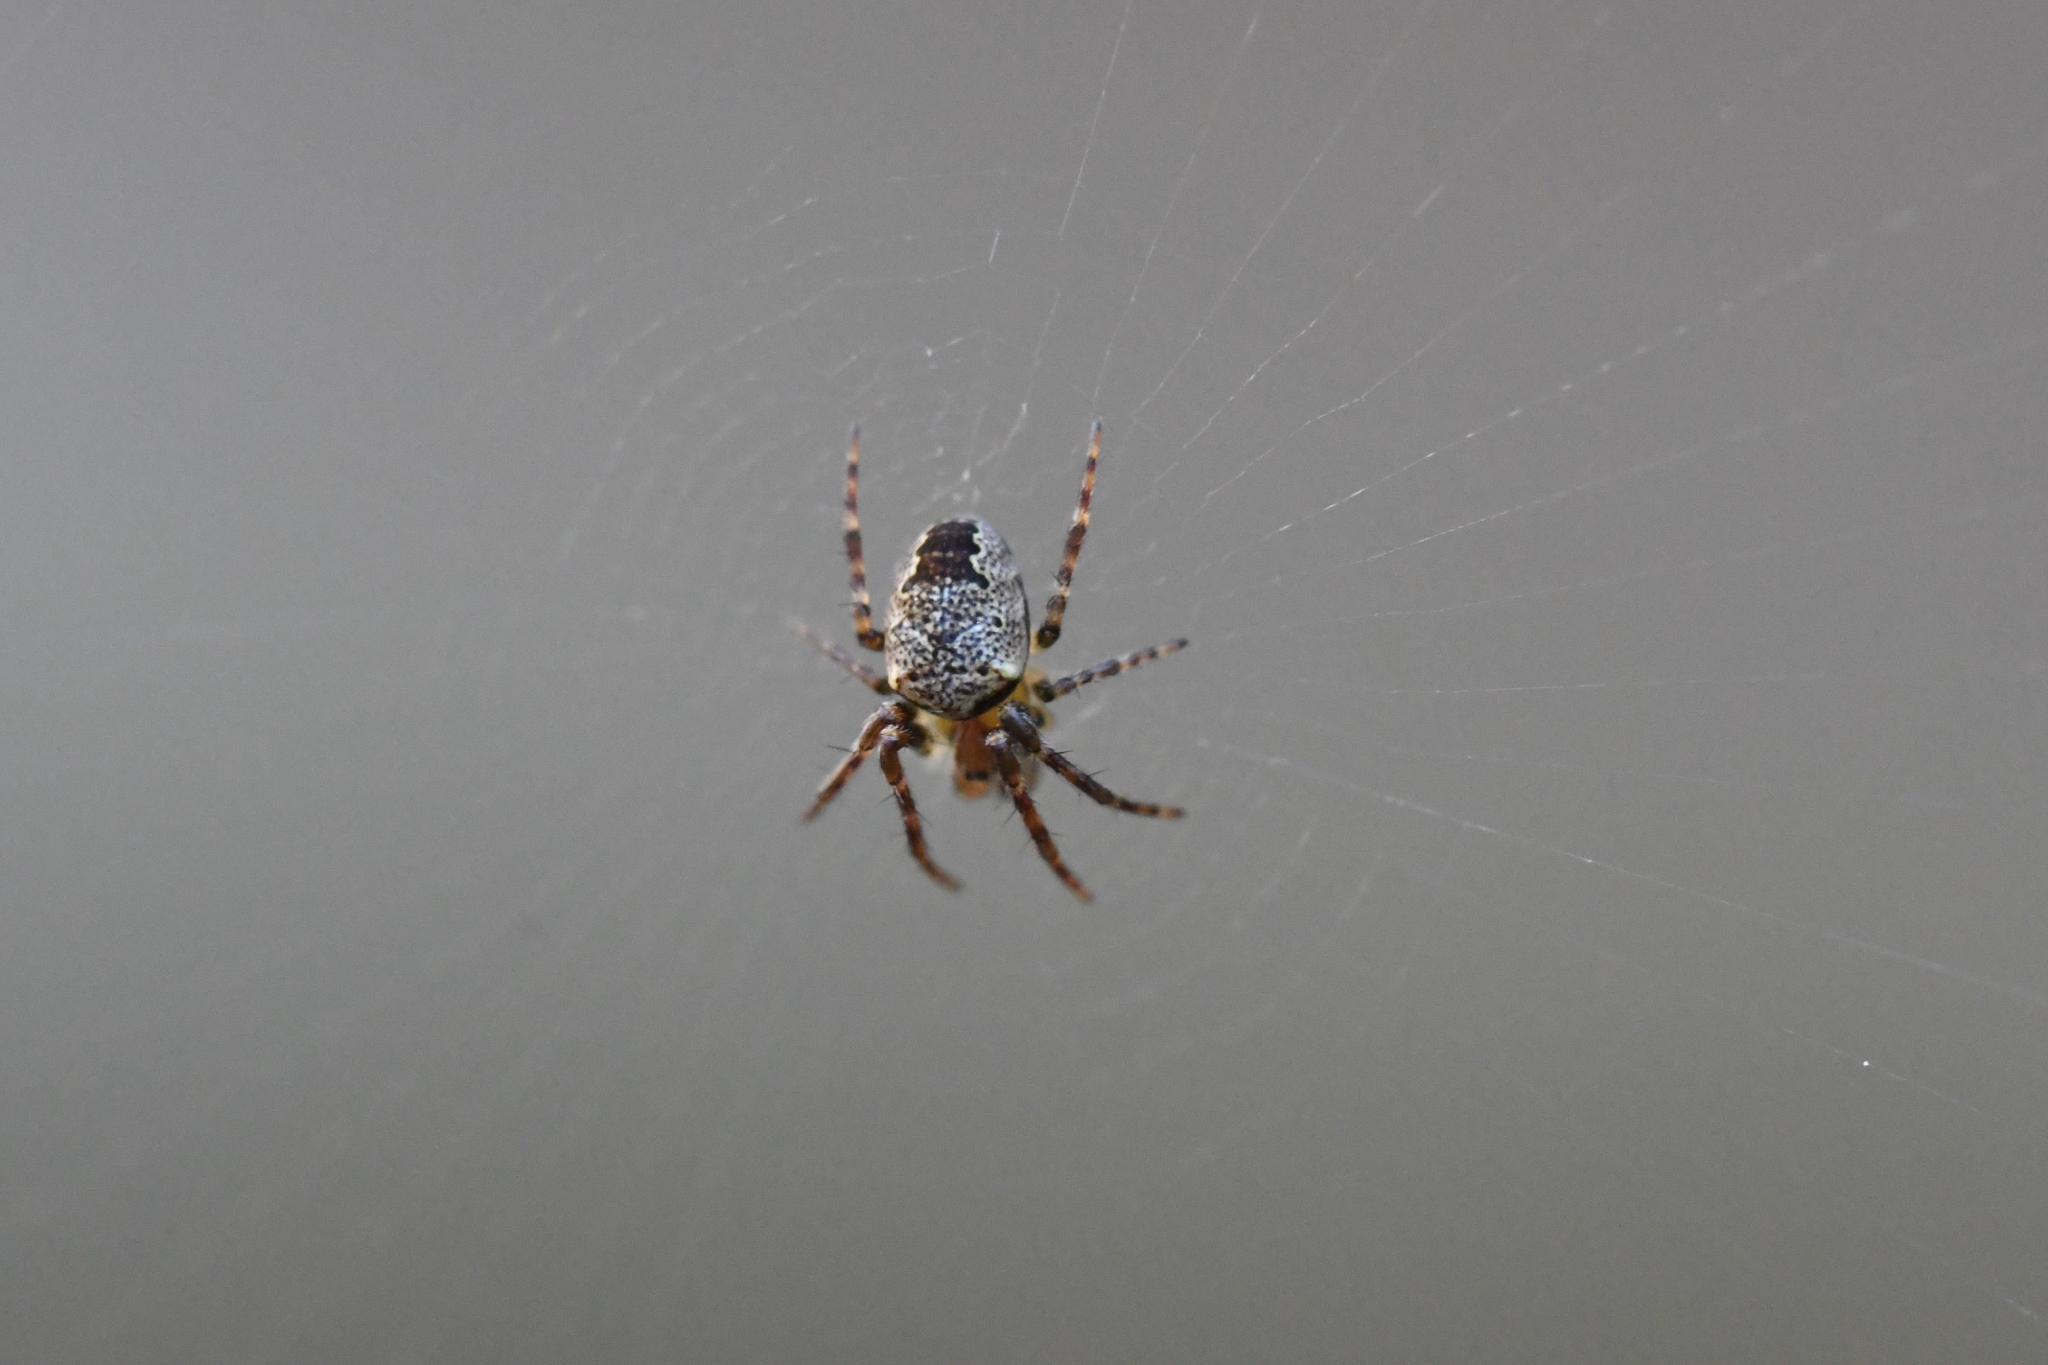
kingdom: Animalia
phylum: Arthropoda
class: Arachnida
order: Araneae
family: Araneidae
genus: Zilla
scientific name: Zilla diodia
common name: Zilla diodia
